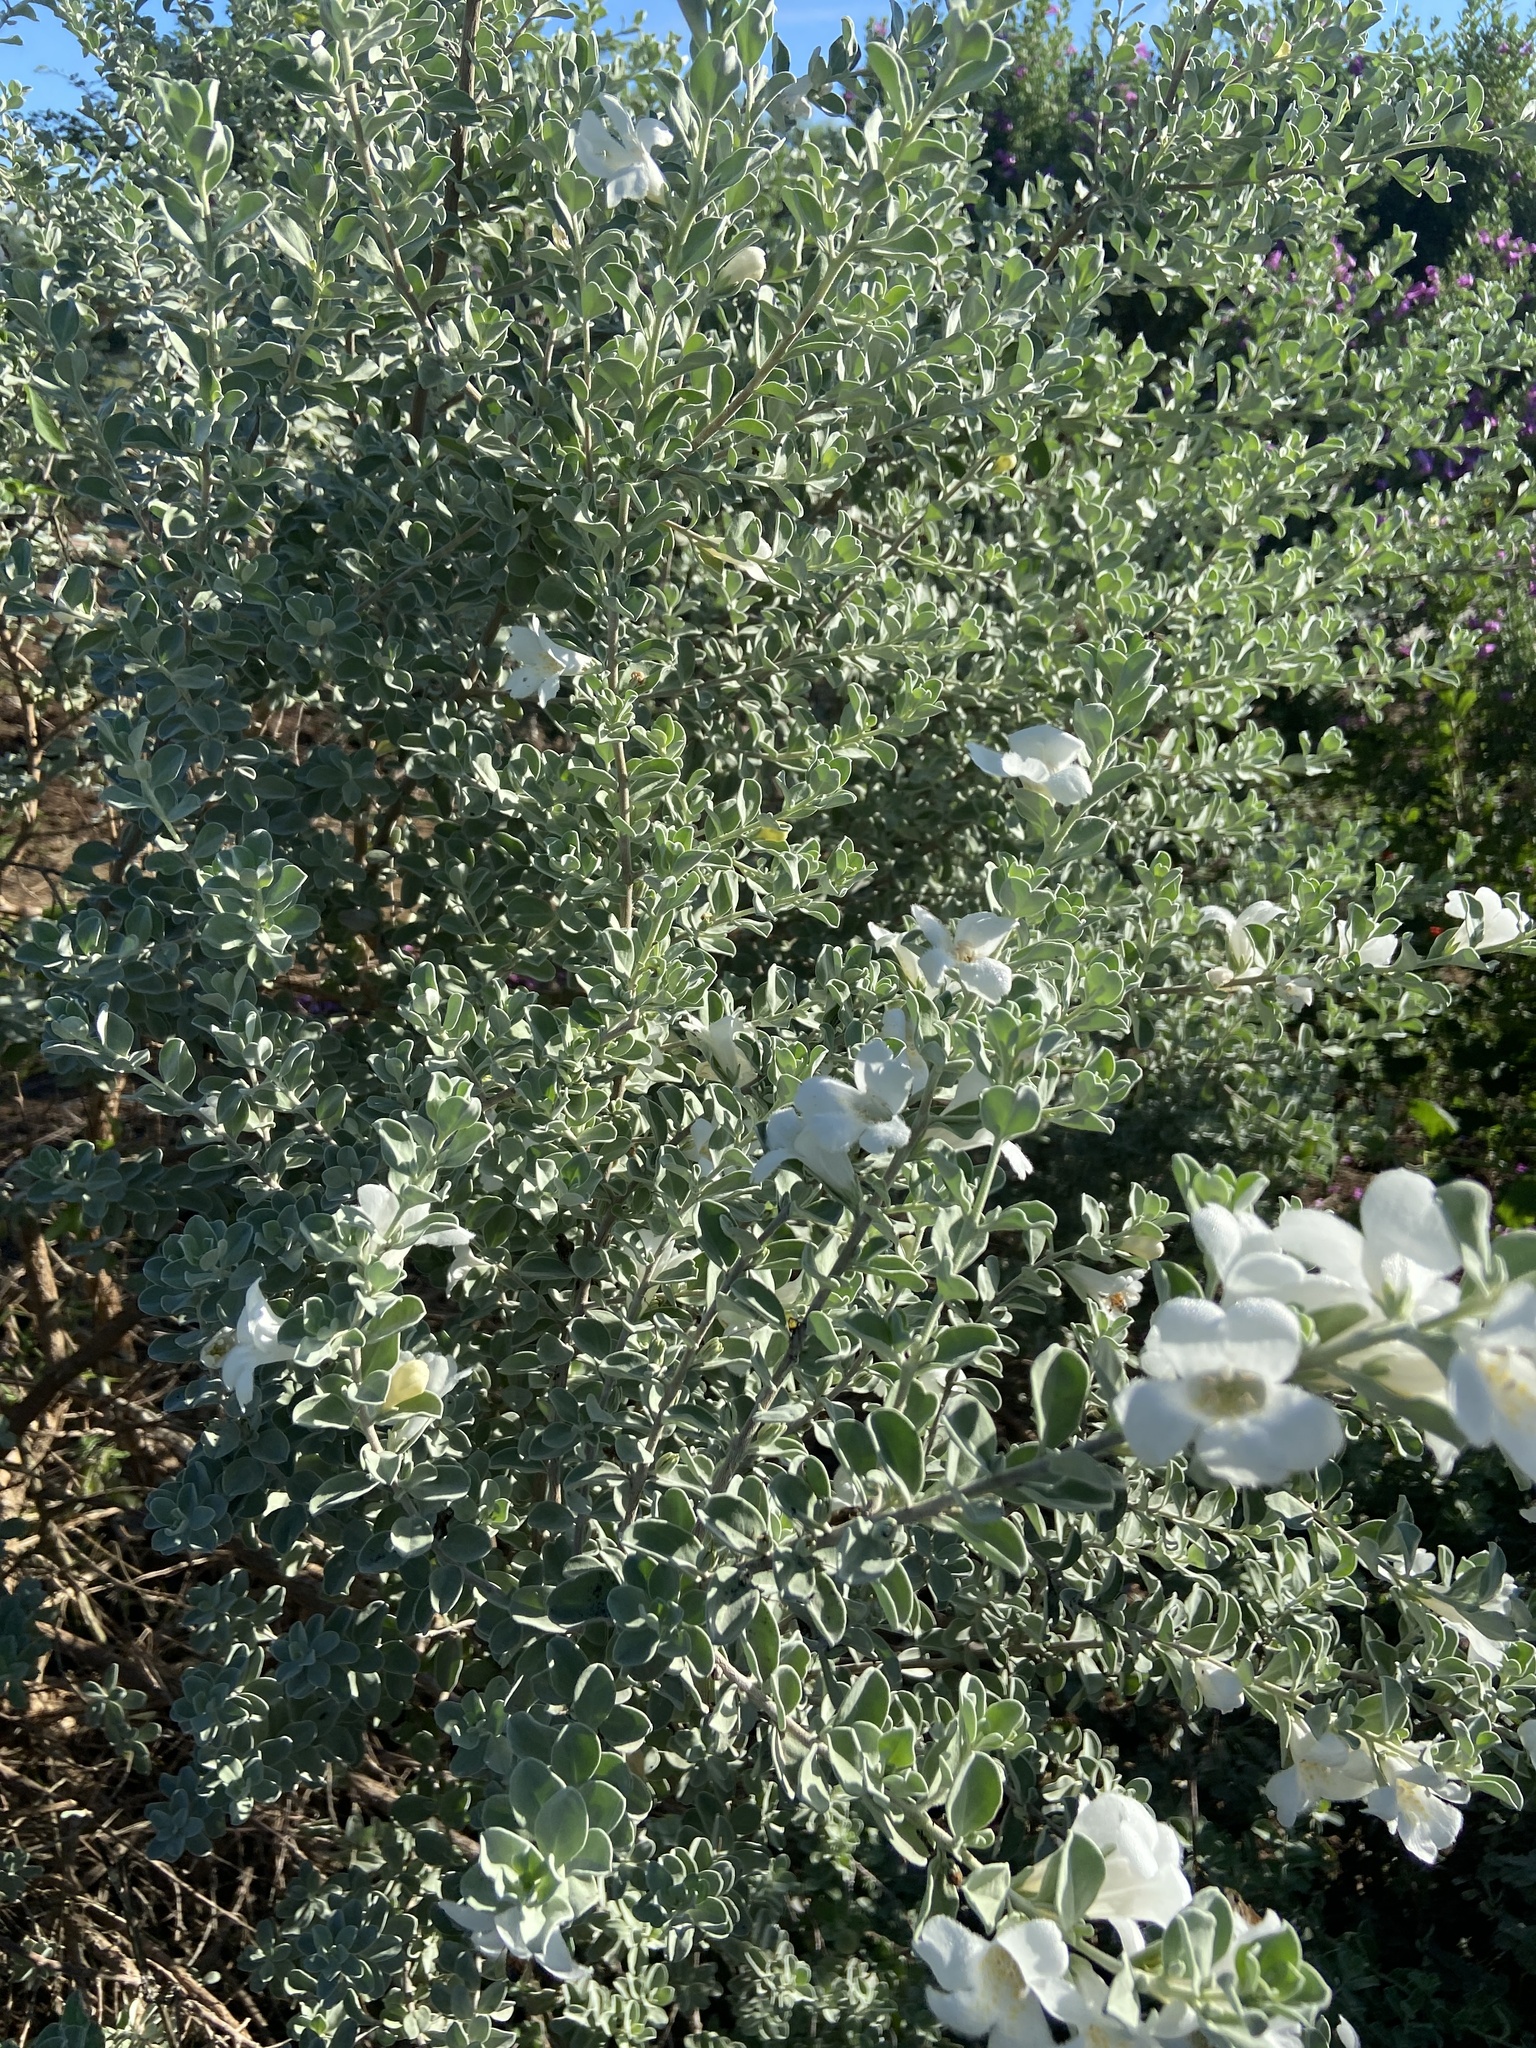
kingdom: Plantae
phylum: Tracheophyta
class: Magnoliopsida
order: Lamiales
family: Scrophulariaceae
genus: Leucophyllum
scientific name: Leucophyllum frutescens
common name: Texas silverleaf
